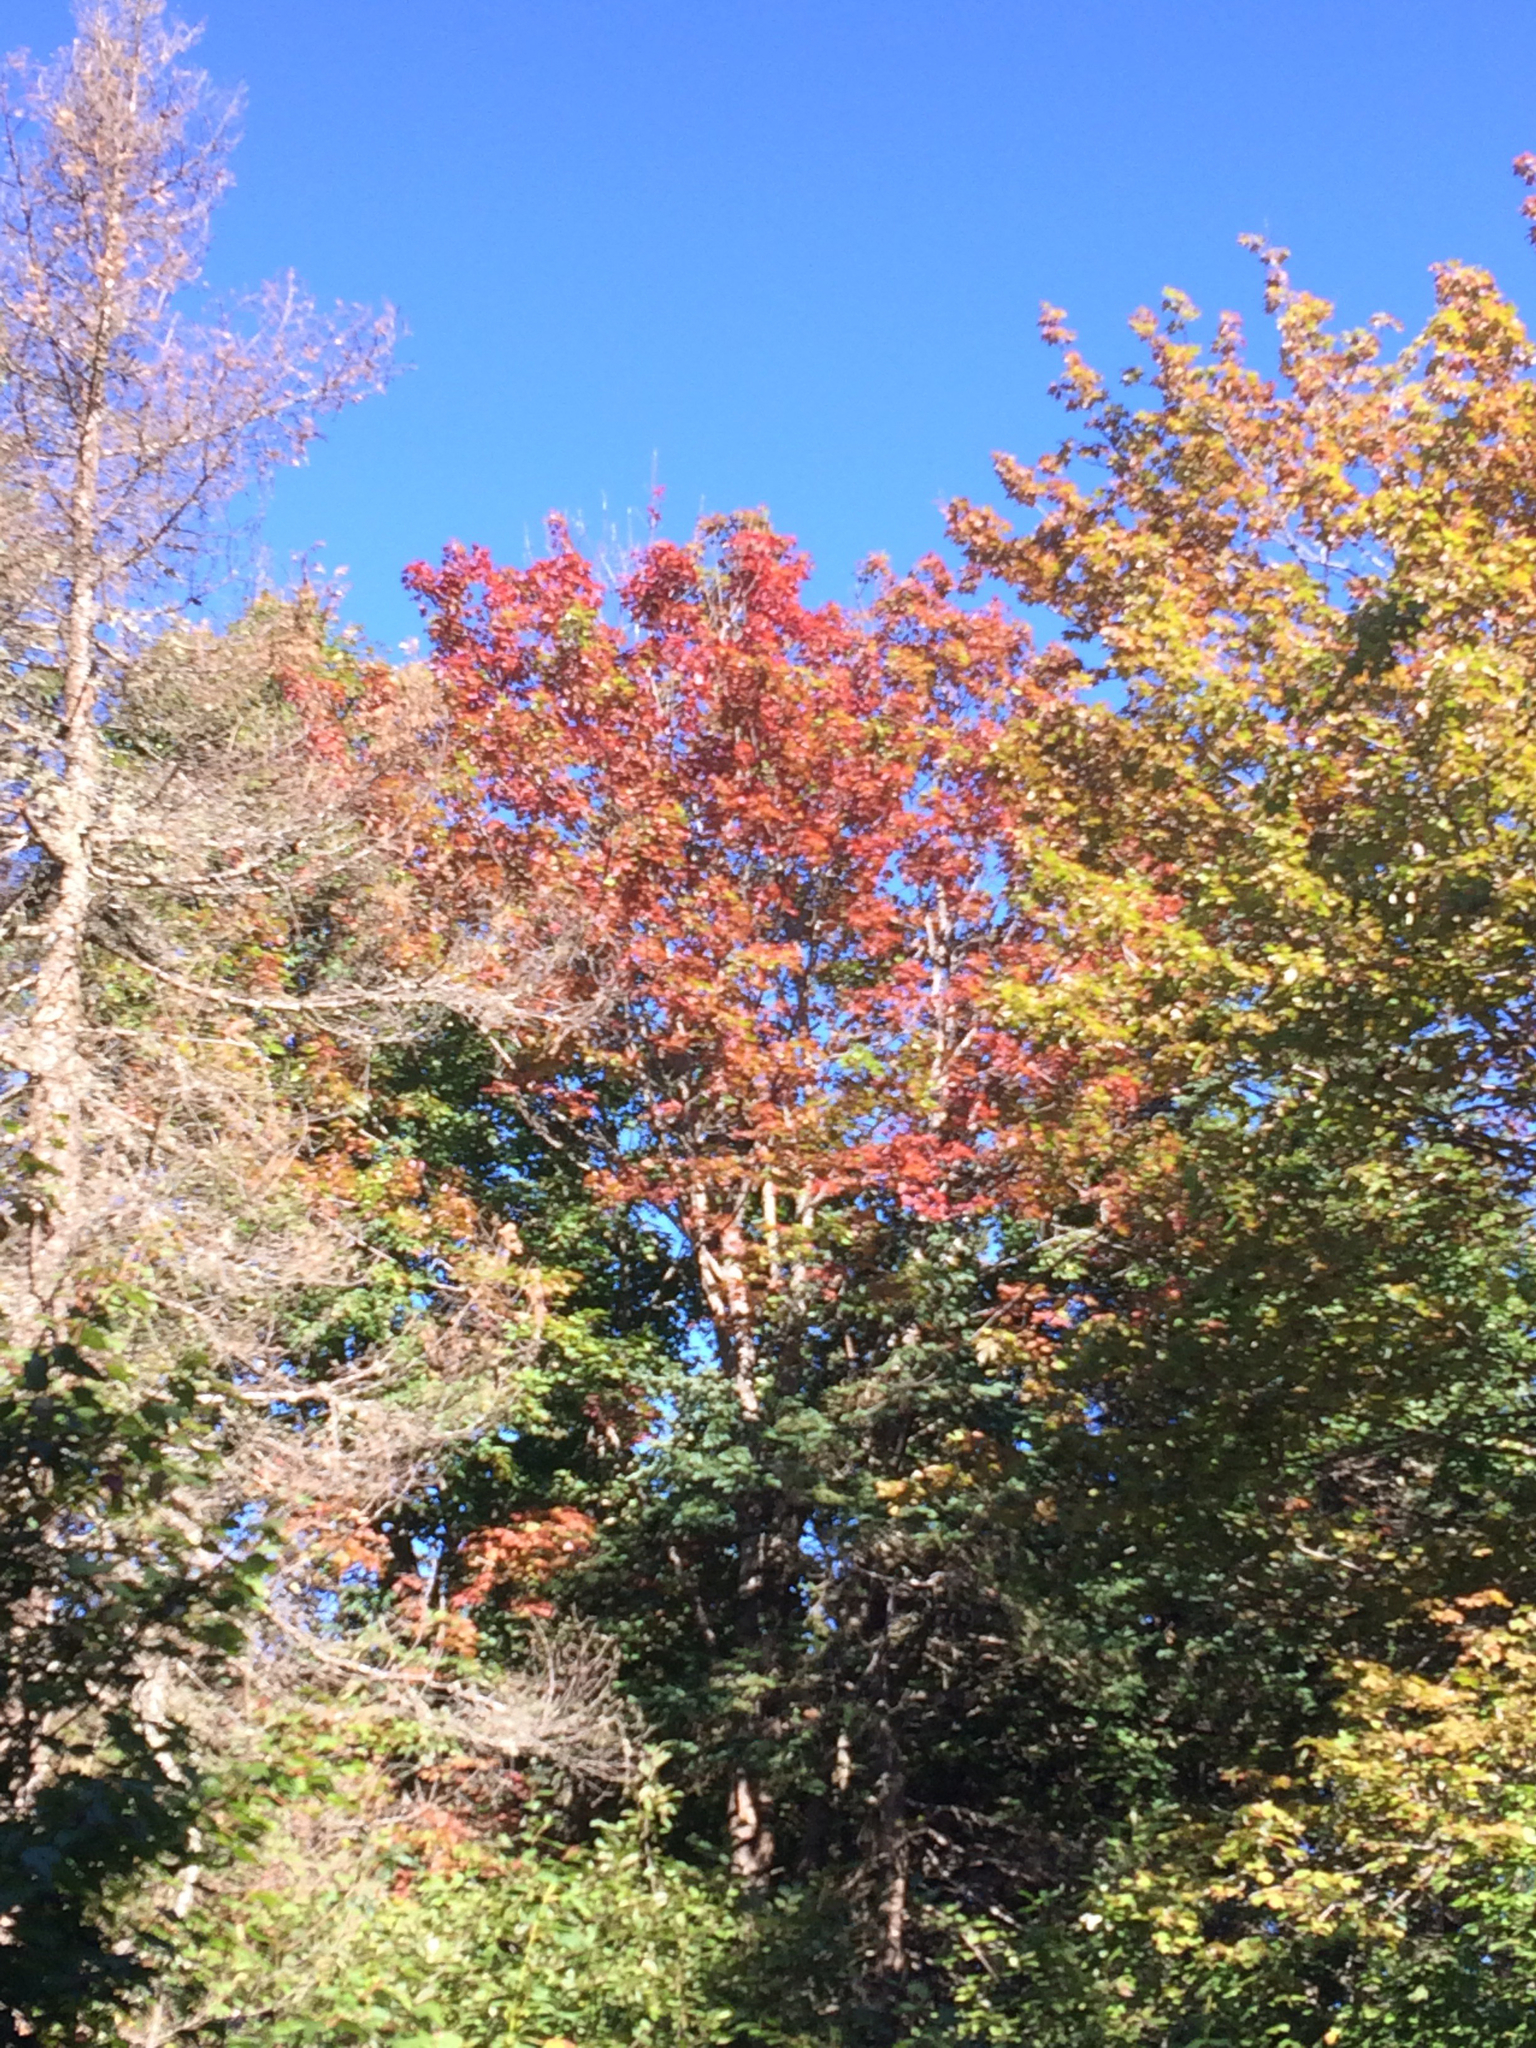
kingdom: Plantae
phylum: Tracheophyta
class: Magnoliopsida
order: Sapindales
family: Sapindaceae
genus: Acer
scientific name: Acer rubrum
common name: Red maple
